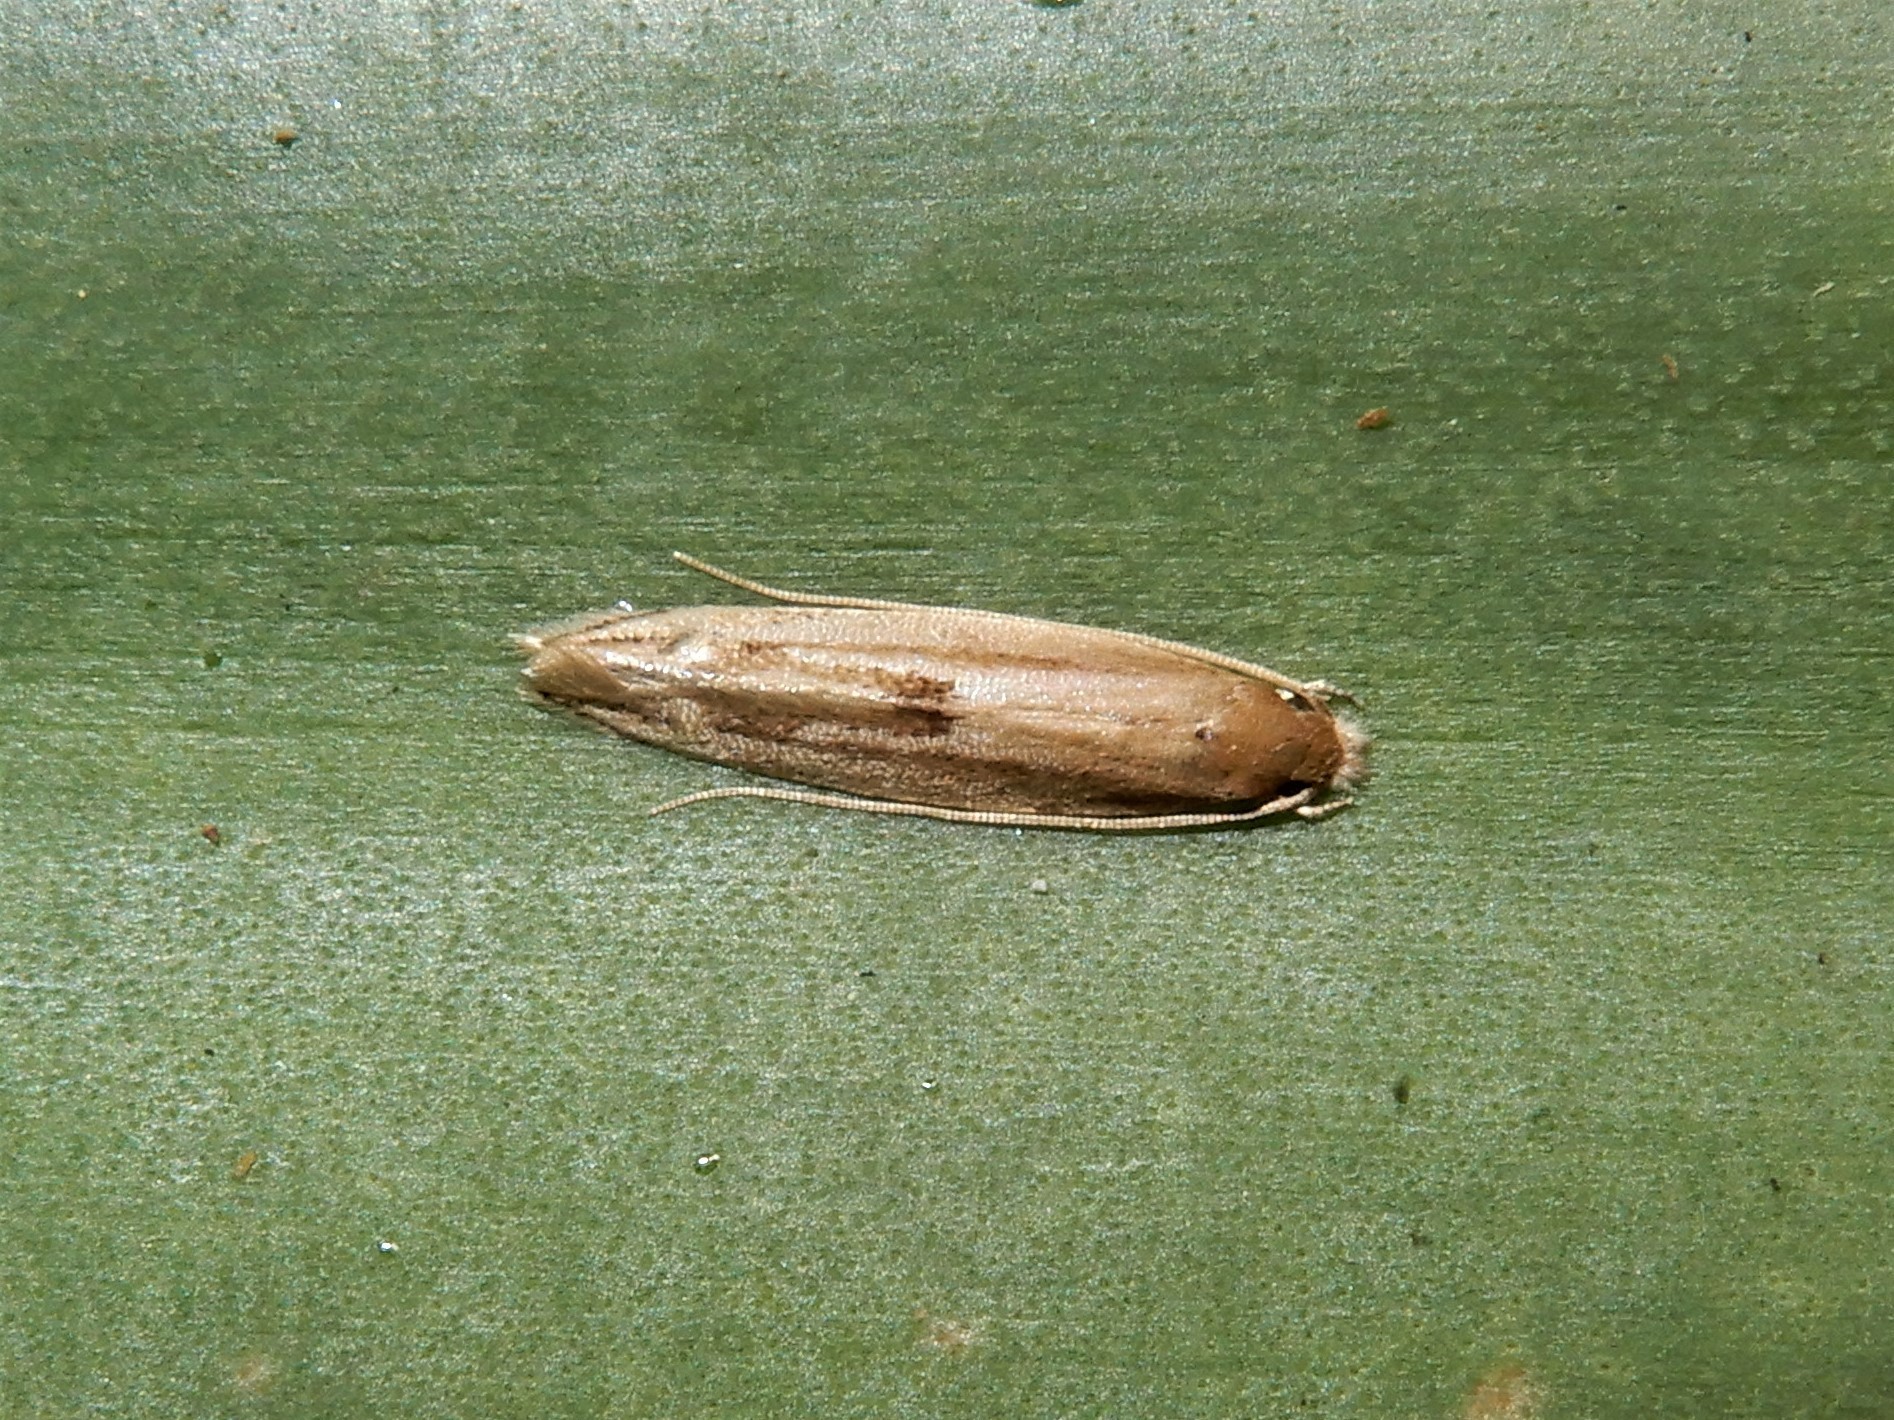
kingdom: Animalia
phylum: Arthropoda
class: Insecta
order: Lepidoptera
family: Tineidae
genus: Amphixystis
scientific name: Amphixystis hapsimacha
